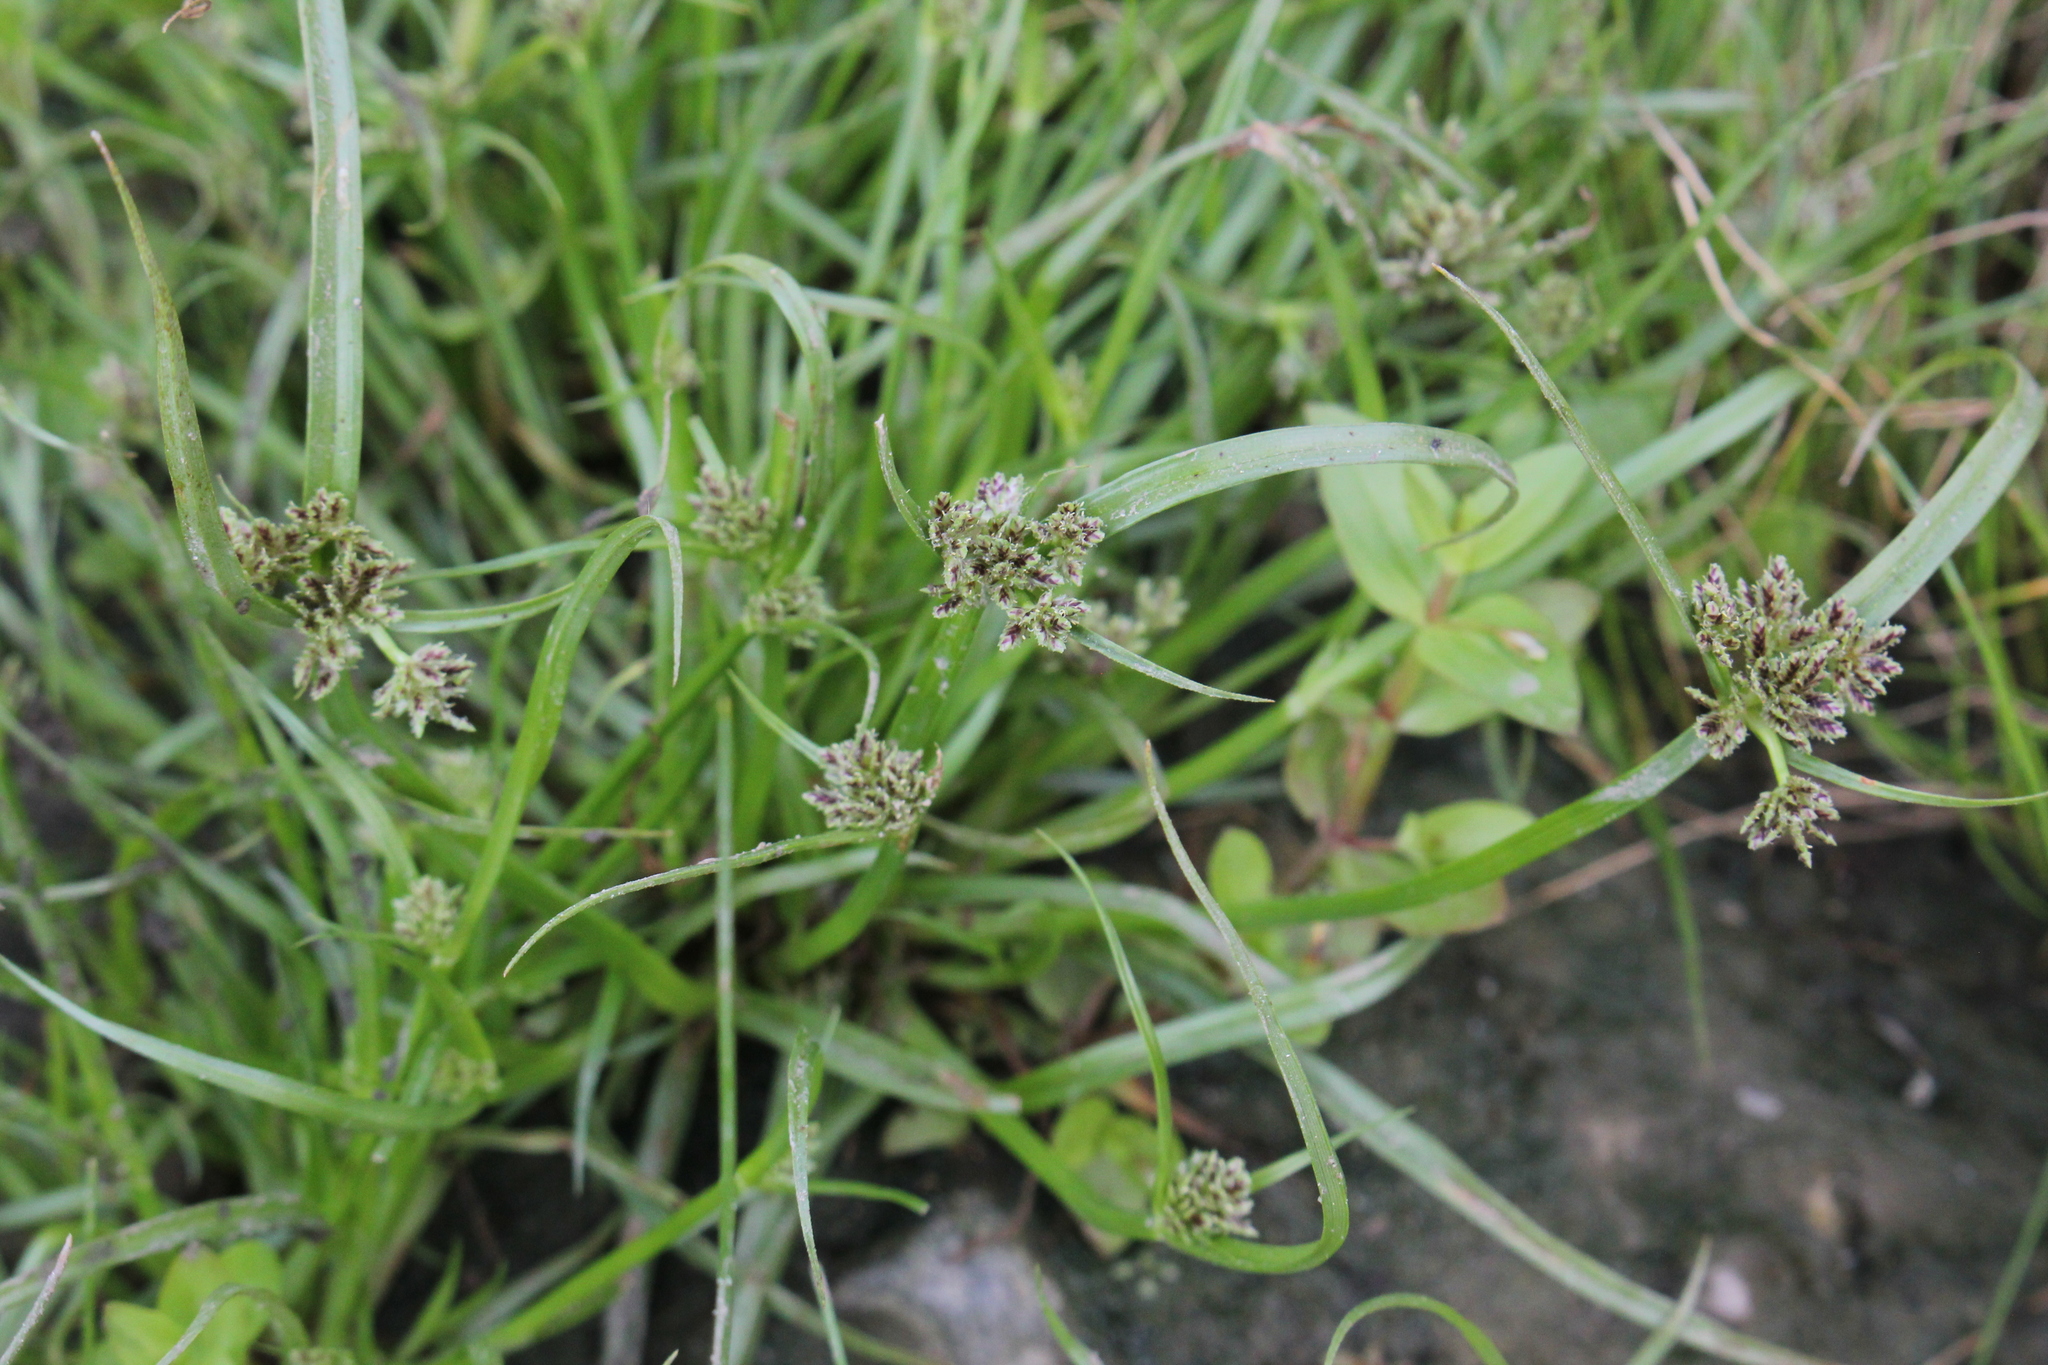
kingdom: Plantae
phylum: Tracheophyta
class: Liliopsida
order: Poales
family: Cyperaceae
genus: Cyperus
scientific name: Cyperus fuscus
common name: Brown galingale
